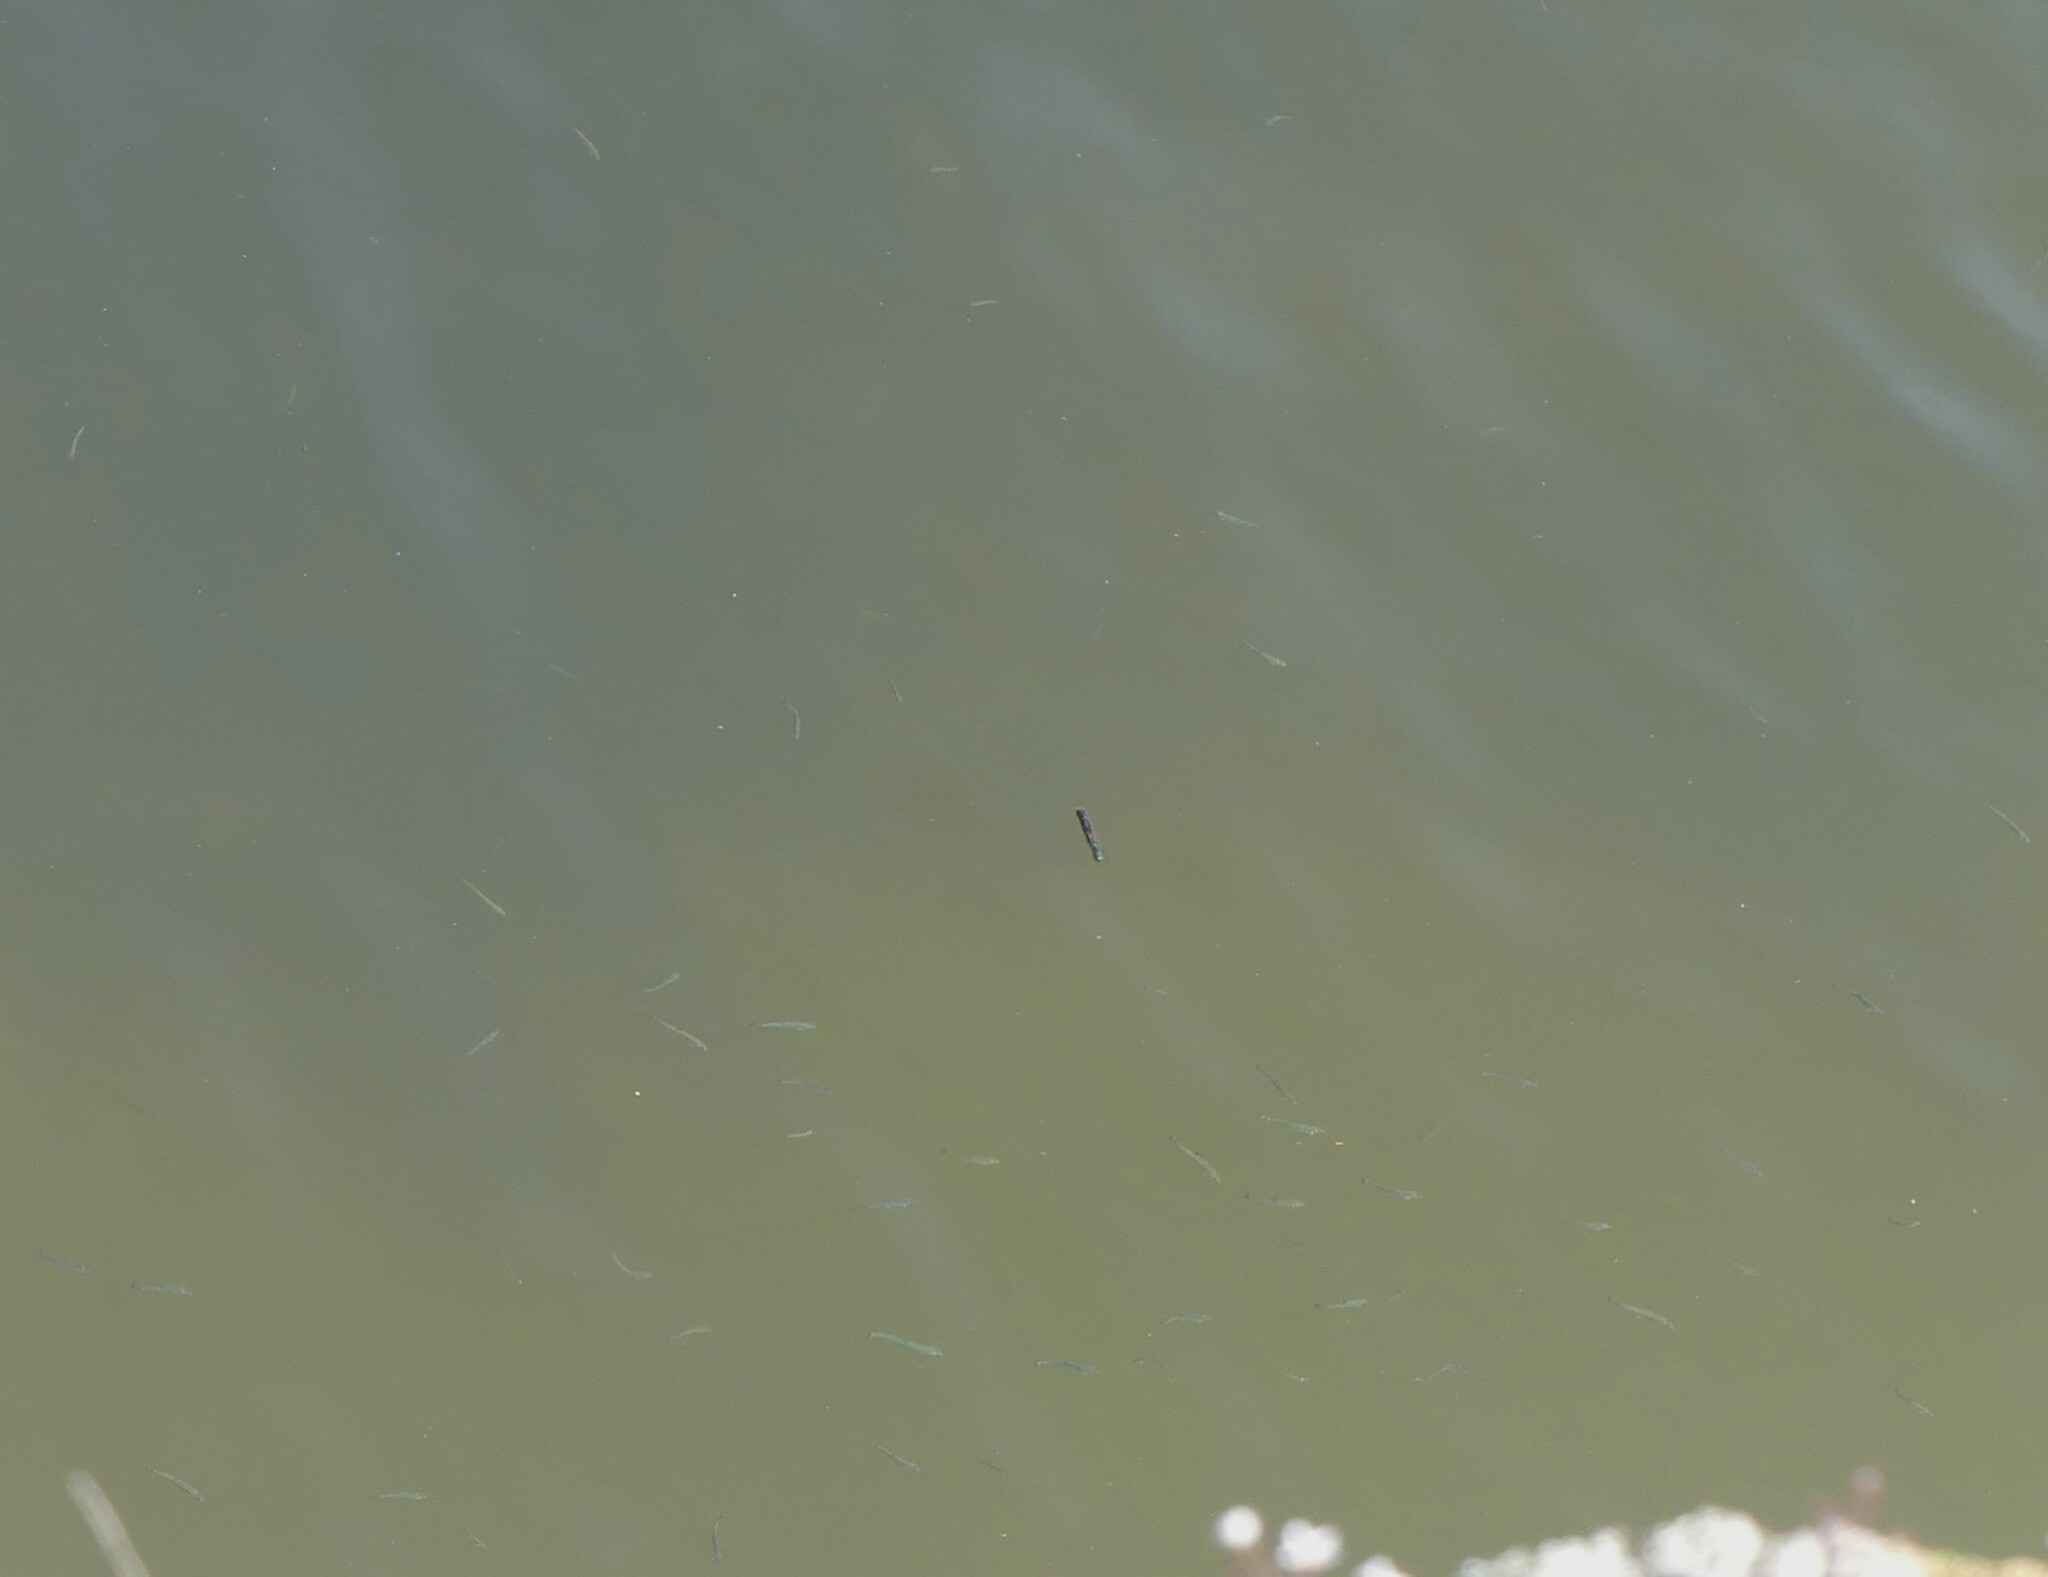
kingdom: Animalia
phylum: Chordata
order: Gasterosteiformes
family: Gasterosteidae
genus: Gasterosteus
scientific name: Gasterosteus aculeatus
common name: Three-spined stickleback
